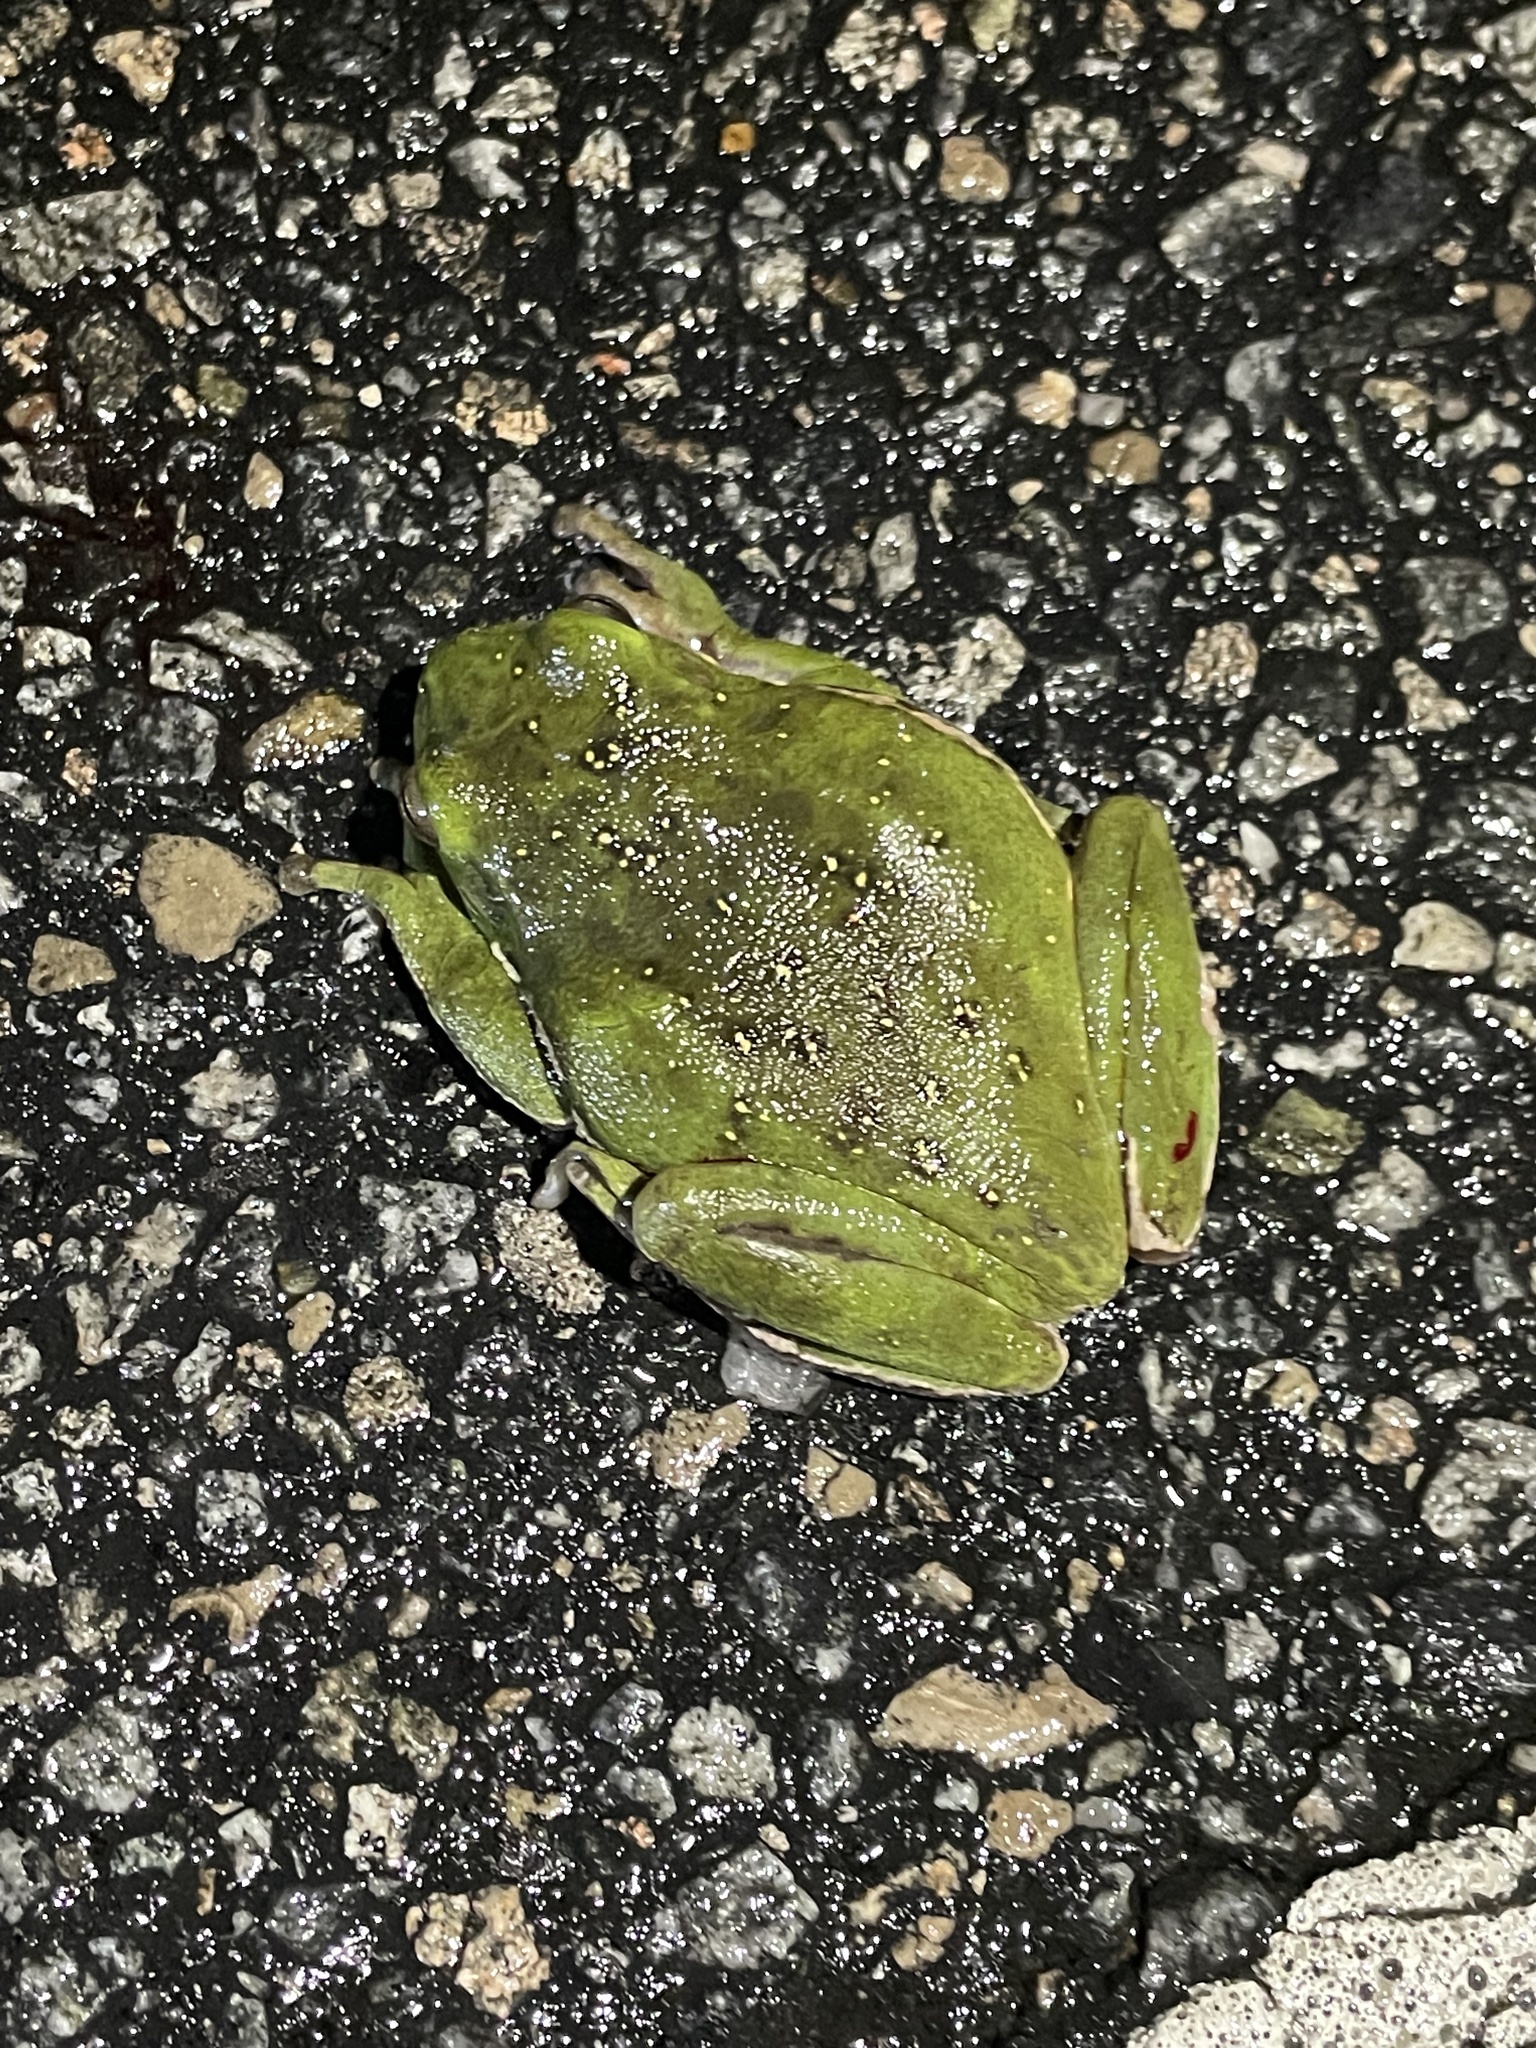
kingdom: Animalia
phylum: Chordata
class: Amphibia
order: Anura
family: Hylidae
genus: Dryophytes
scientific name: Dryophytes gratiosus
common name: Barking treefrog
